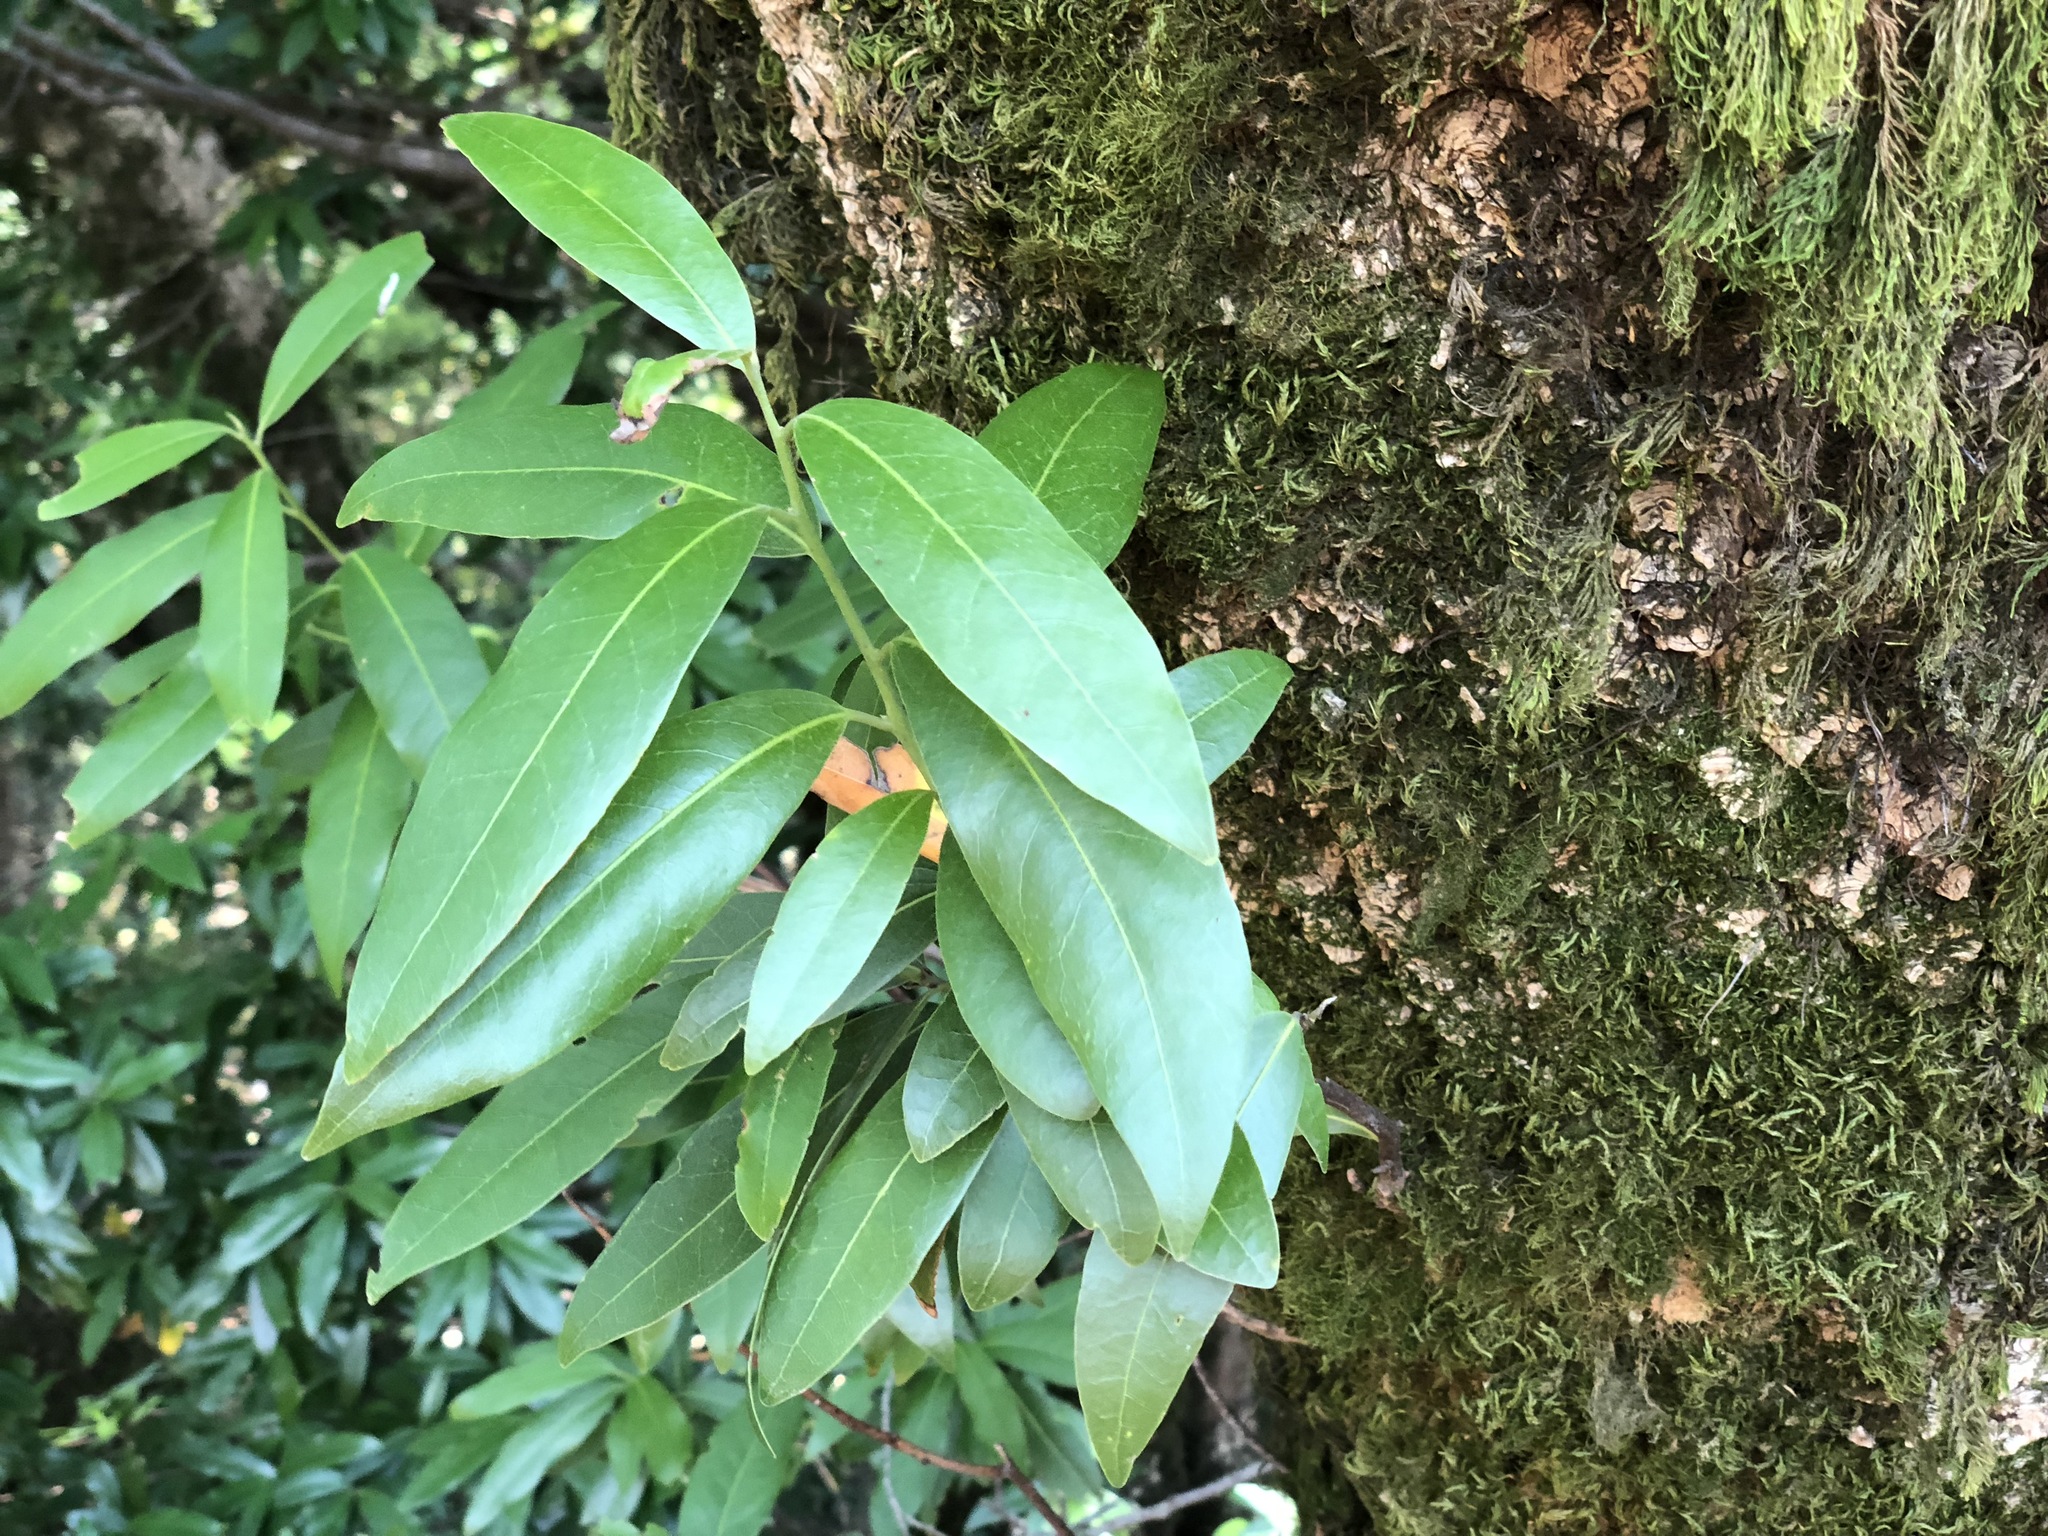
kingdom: Plantae
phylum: Tracheophyta
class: Magnoliopsida
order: Laurales
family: Lauraceae
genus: Umbellularia
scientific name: Umbellularia californica
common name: California bay
